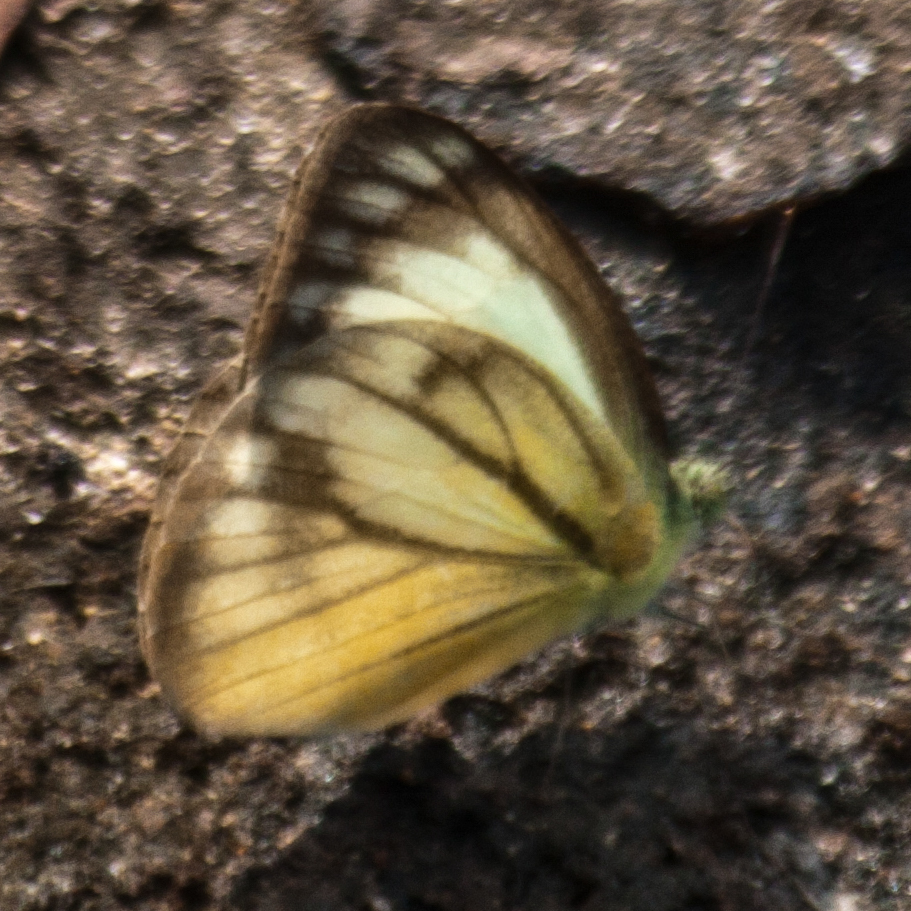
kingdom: Animalia
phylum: Arthropoda
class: Insecta
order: Lepidoptera
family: Pieridae
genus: Cepora
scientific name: Cepora nadina
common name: Lesser gull
